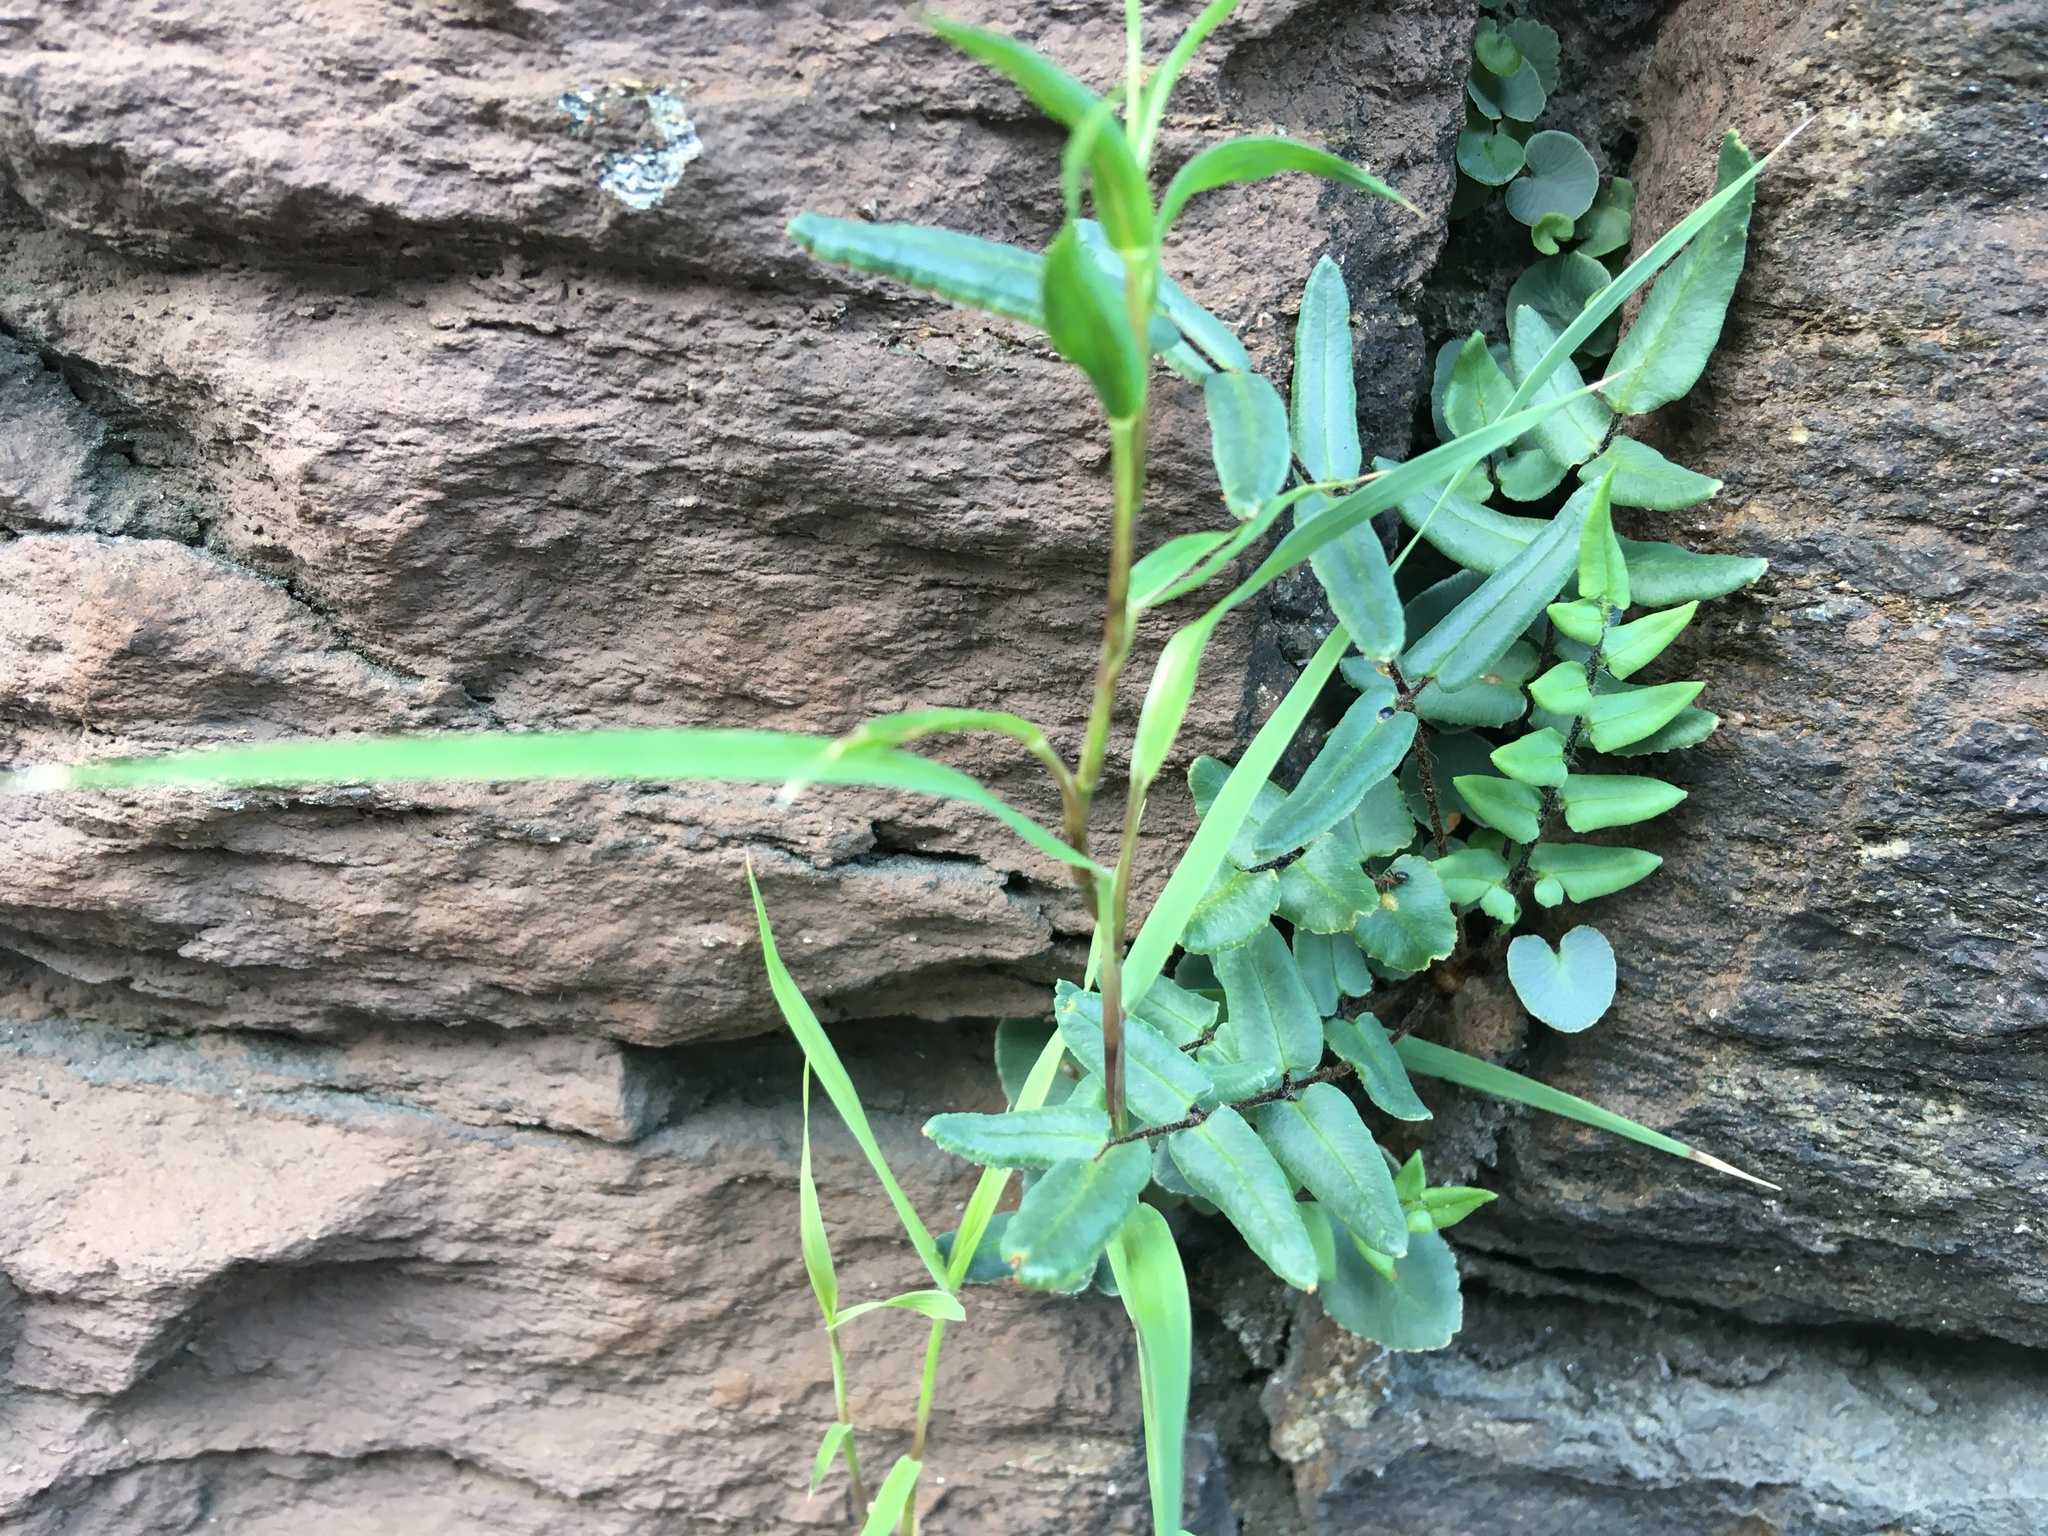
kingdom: Plantae
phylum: Tracheophyta
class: Polypodiopsida
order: Polypodiales
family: Pteridaceae
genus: Pellaea
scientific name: Pellaea atropurpurea
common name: Hairy cliffbrake
